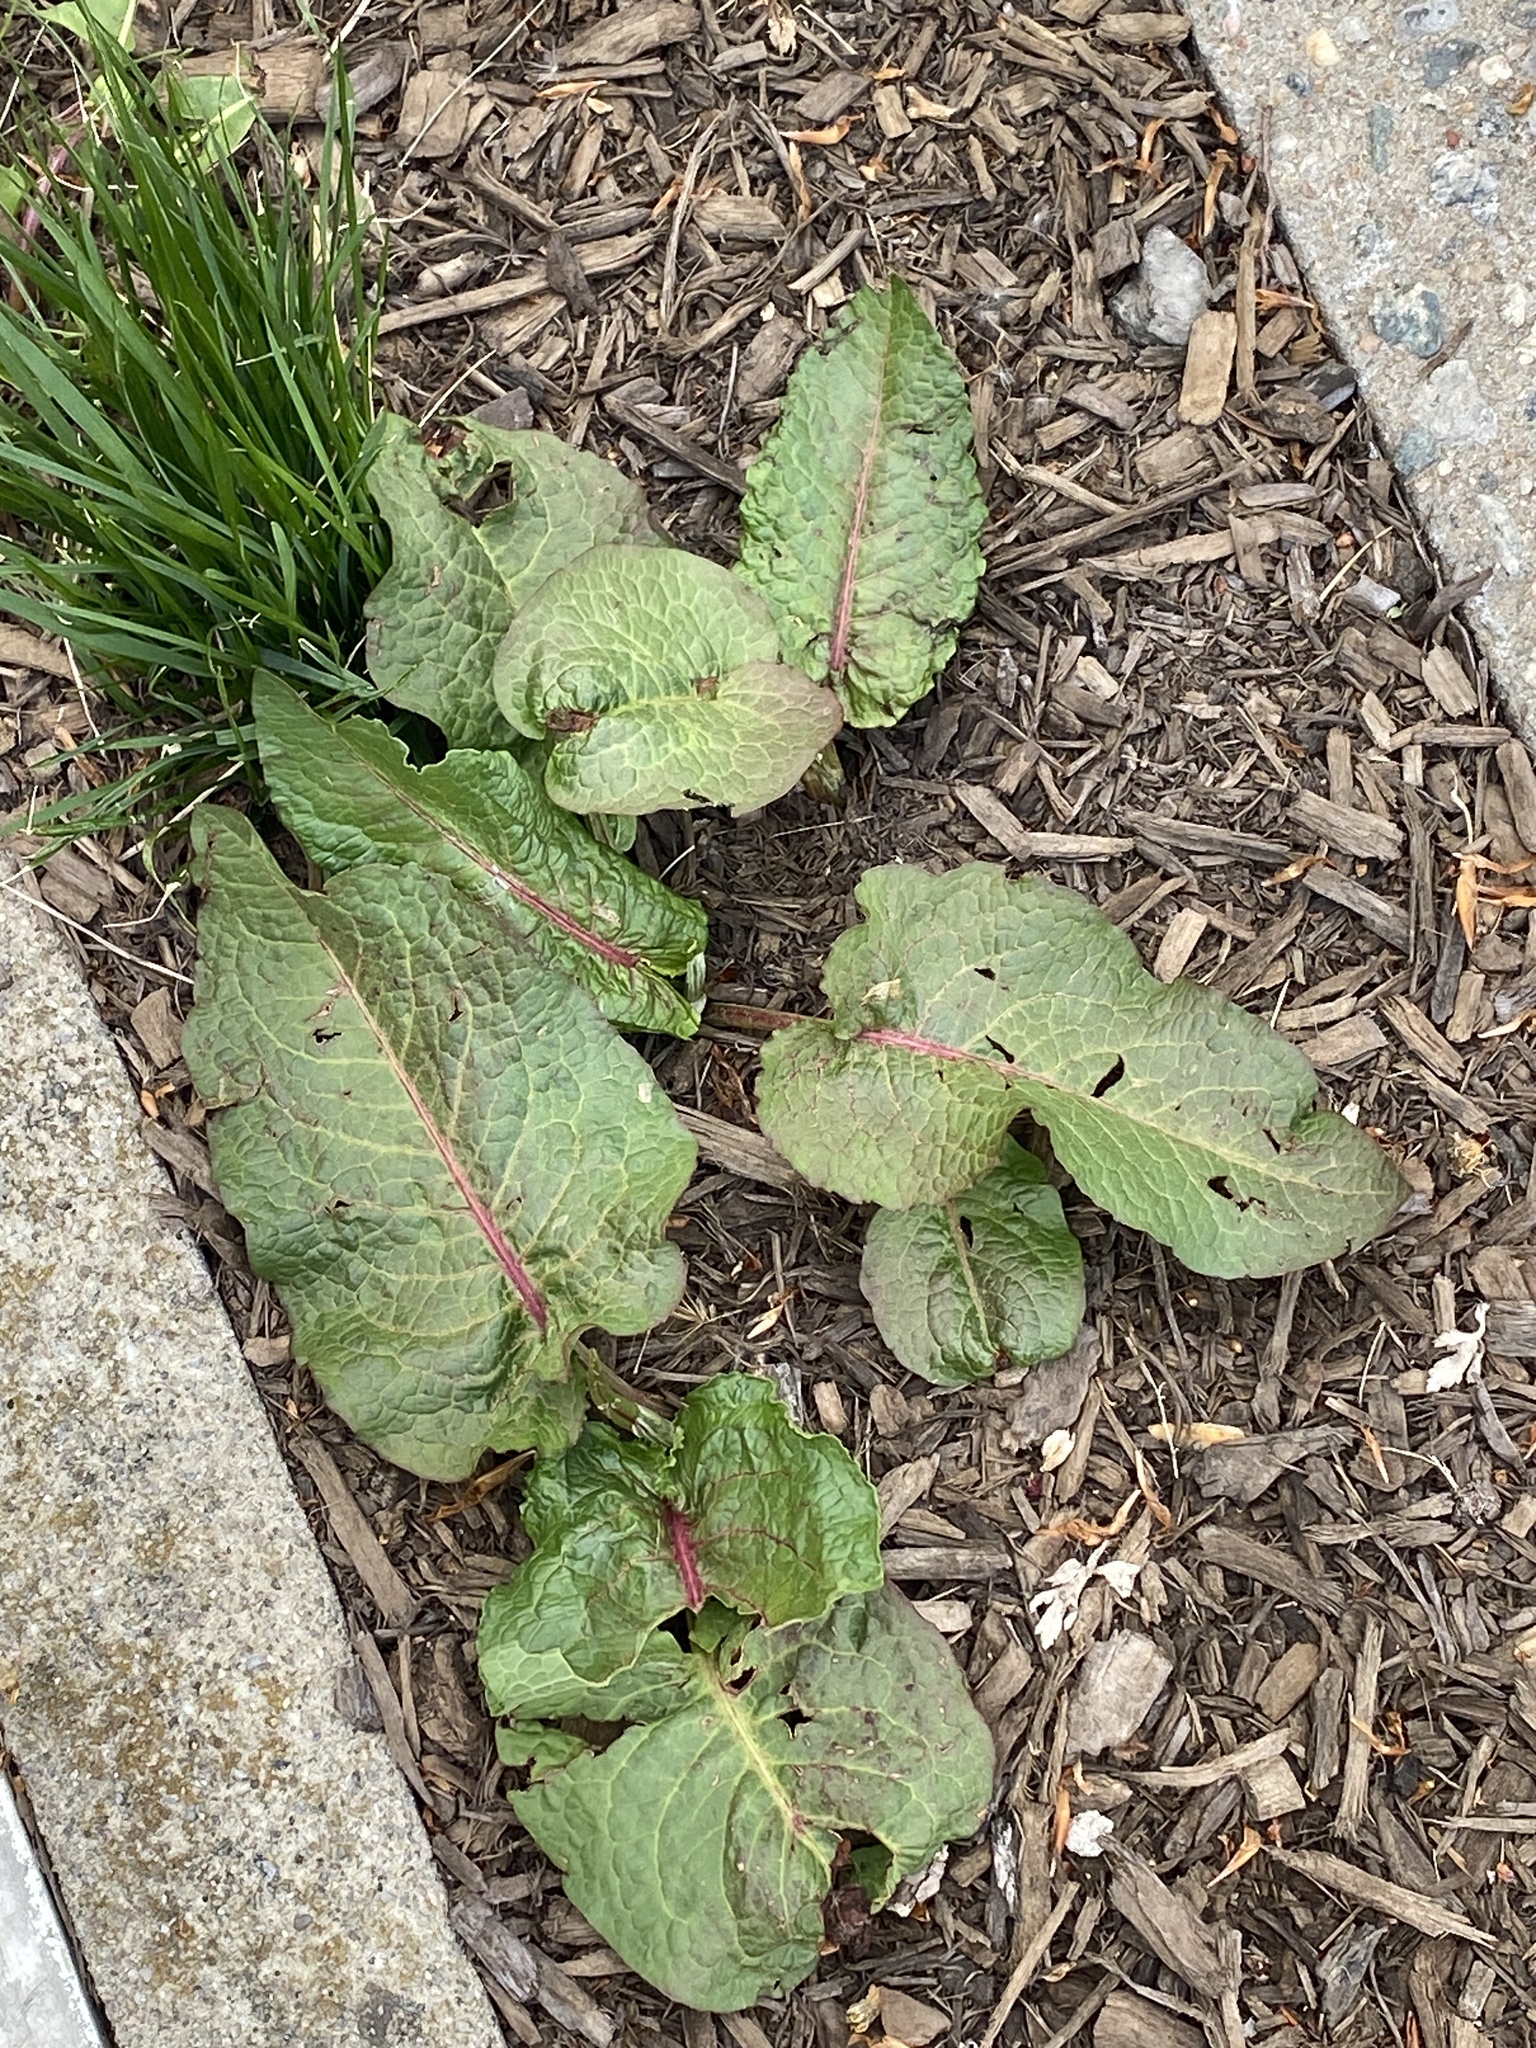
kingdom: Plantae
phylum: Tracheophyta
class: Magnoliopsida
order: Caryophyllales
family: Polygonaceae
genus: Rumex
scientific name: Rumex obtusifolius
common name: Bitter dock
